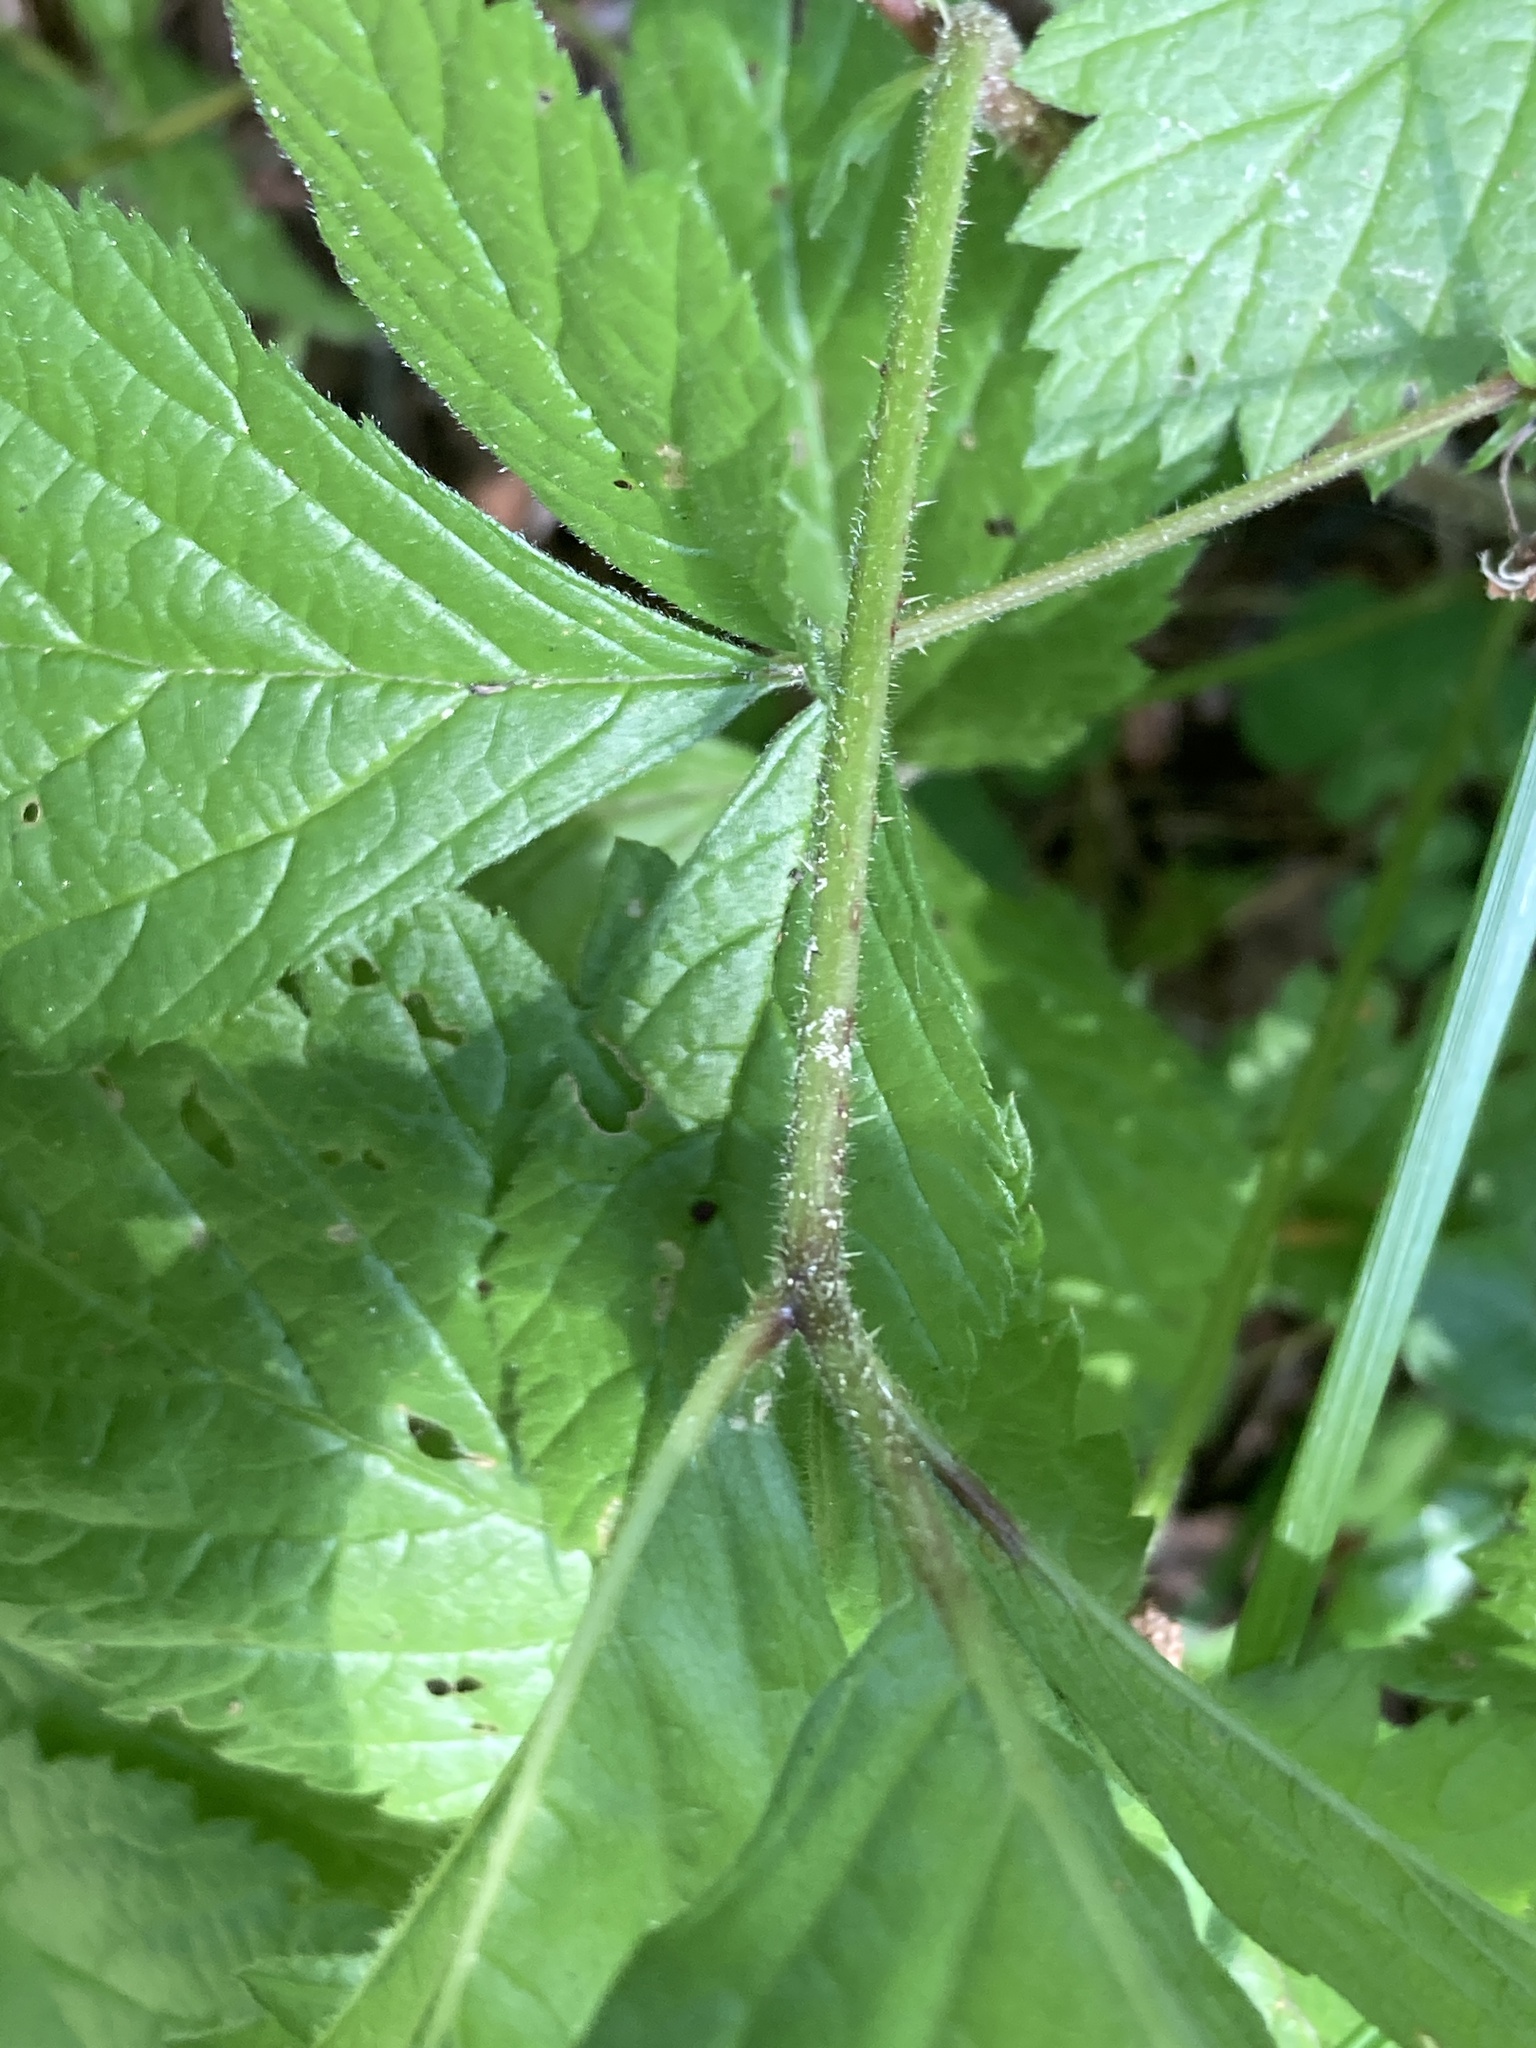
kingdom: Plantae
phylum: Tracheophyta
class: Magnoliopsida
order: Rosales
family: Rosaceae
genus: Rubus
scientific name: Rubus saxatilis
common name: Stone bramble
